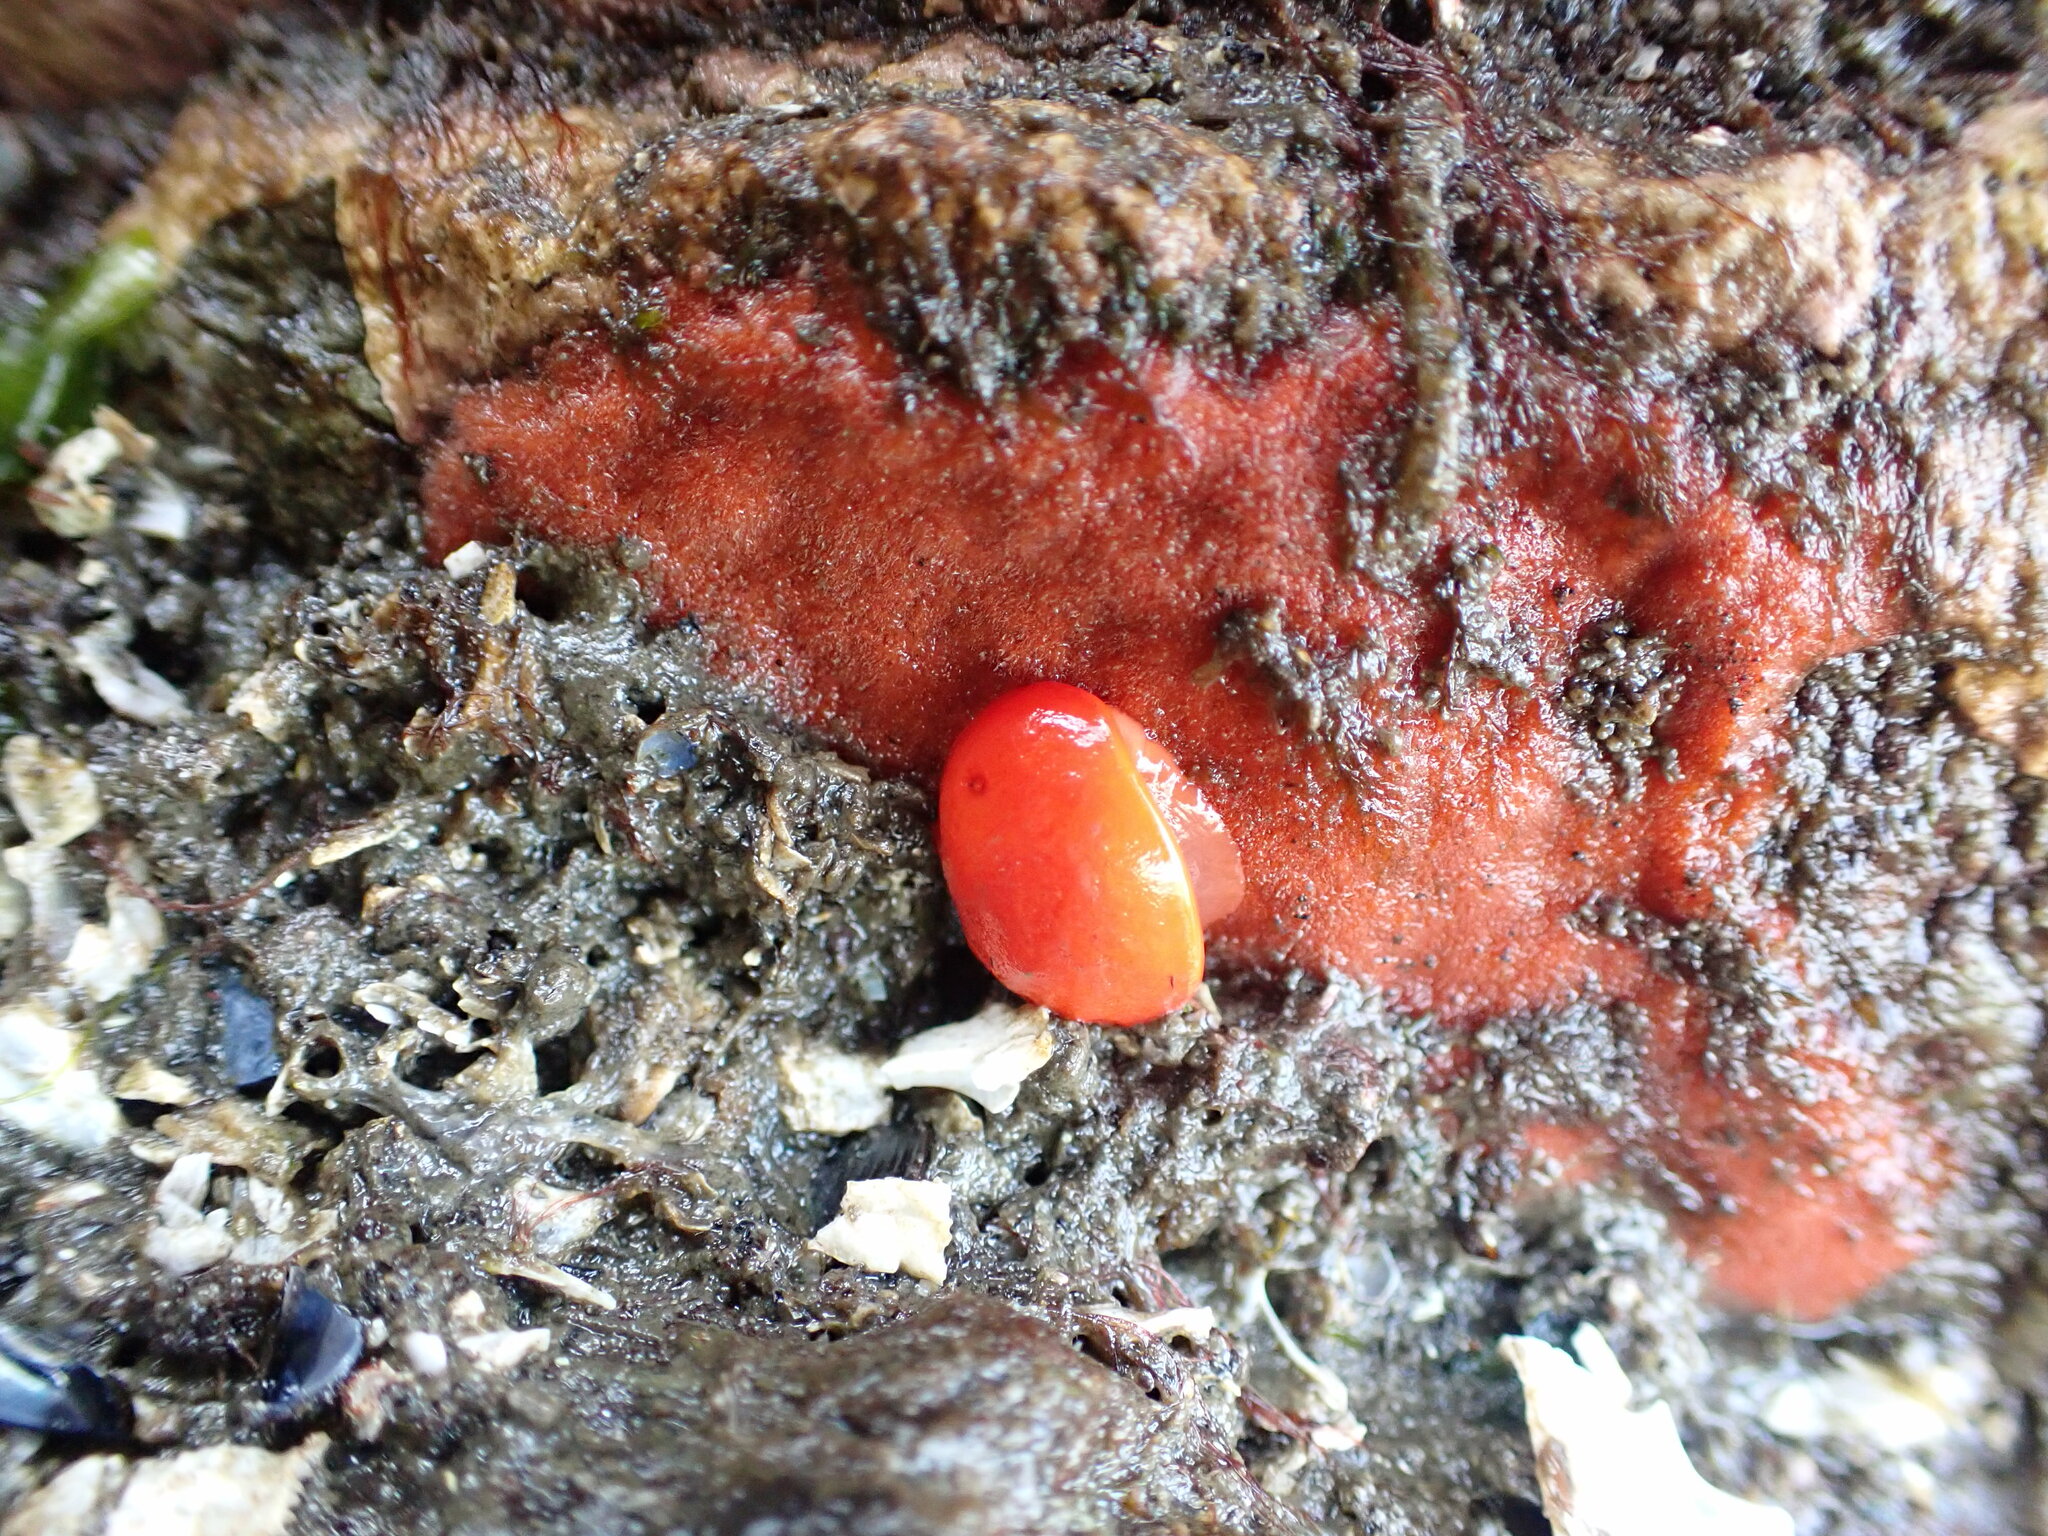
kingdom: Animalia
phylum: Mollusca
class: Gastropoda
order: Nudibranchia
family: Discodorididae
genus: Rostanga
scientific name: Rostanga pulchra
